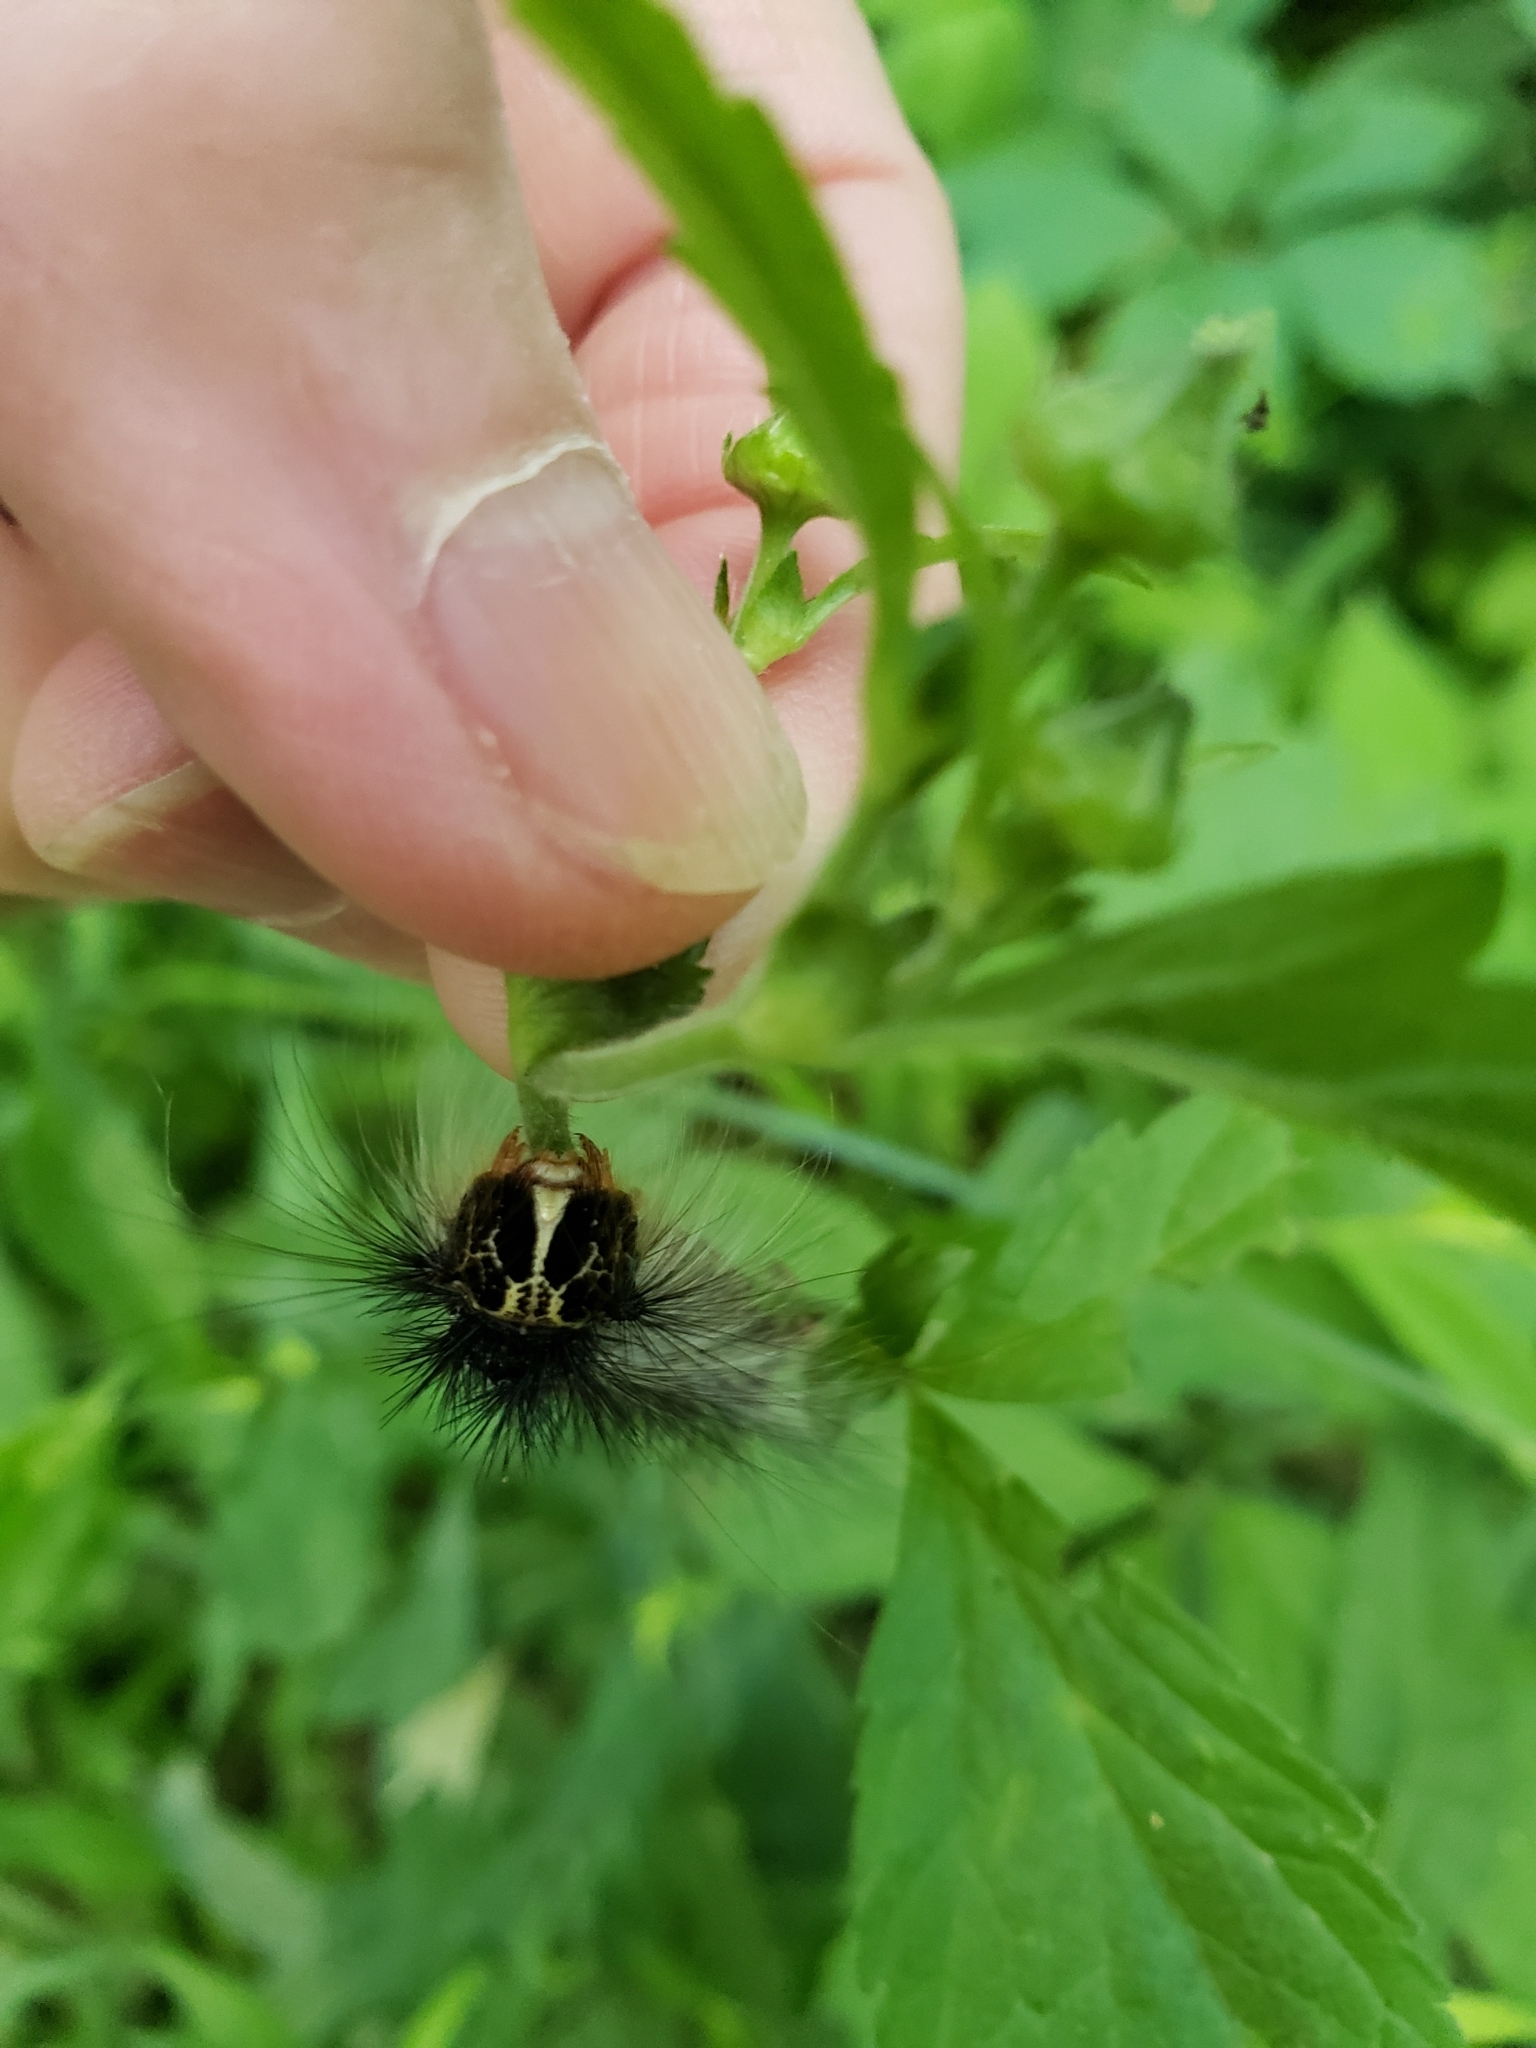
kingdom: Animalia
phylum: Arthropoda
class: Insecta
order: Lepidoptera
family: Erebidae
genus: Lymantria
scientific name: Lymantria dispar
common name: Gypsy moth
